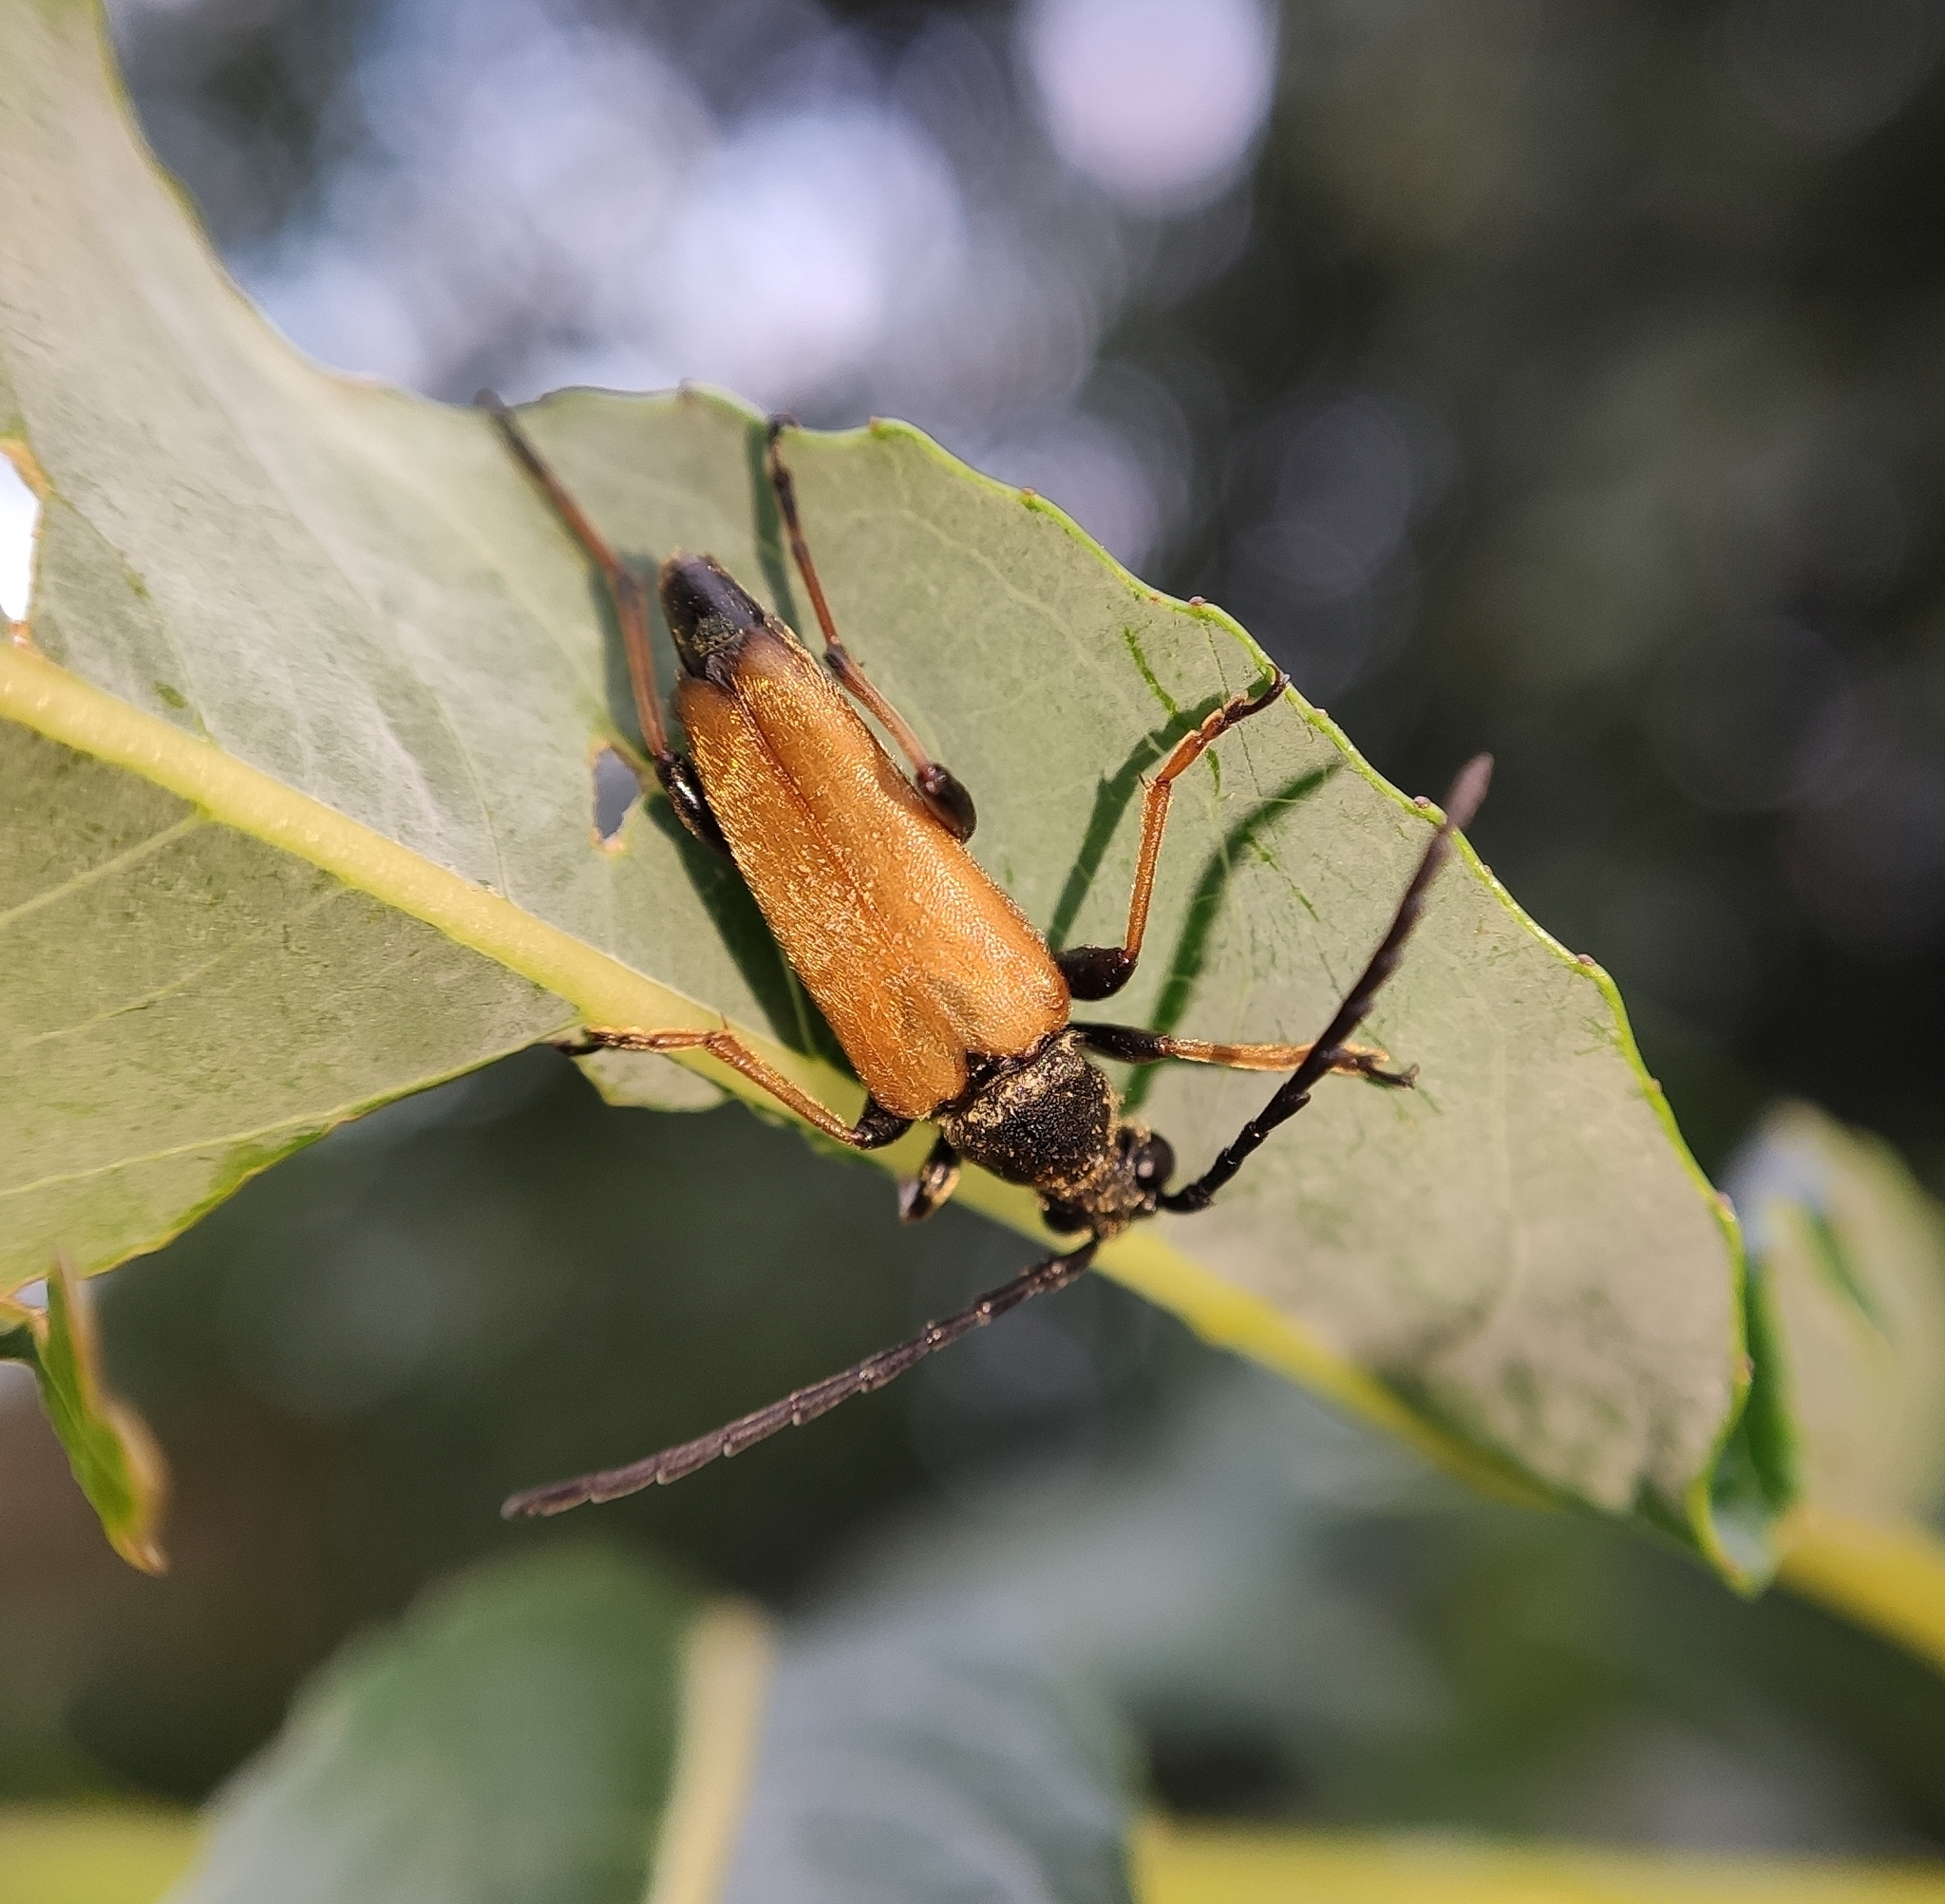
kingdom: Animalia
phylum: Arthropoda
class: Insecta
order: Coleoptera
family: Cerambycidae
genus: Stictoleptura
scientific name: Stictoleptura rubra
